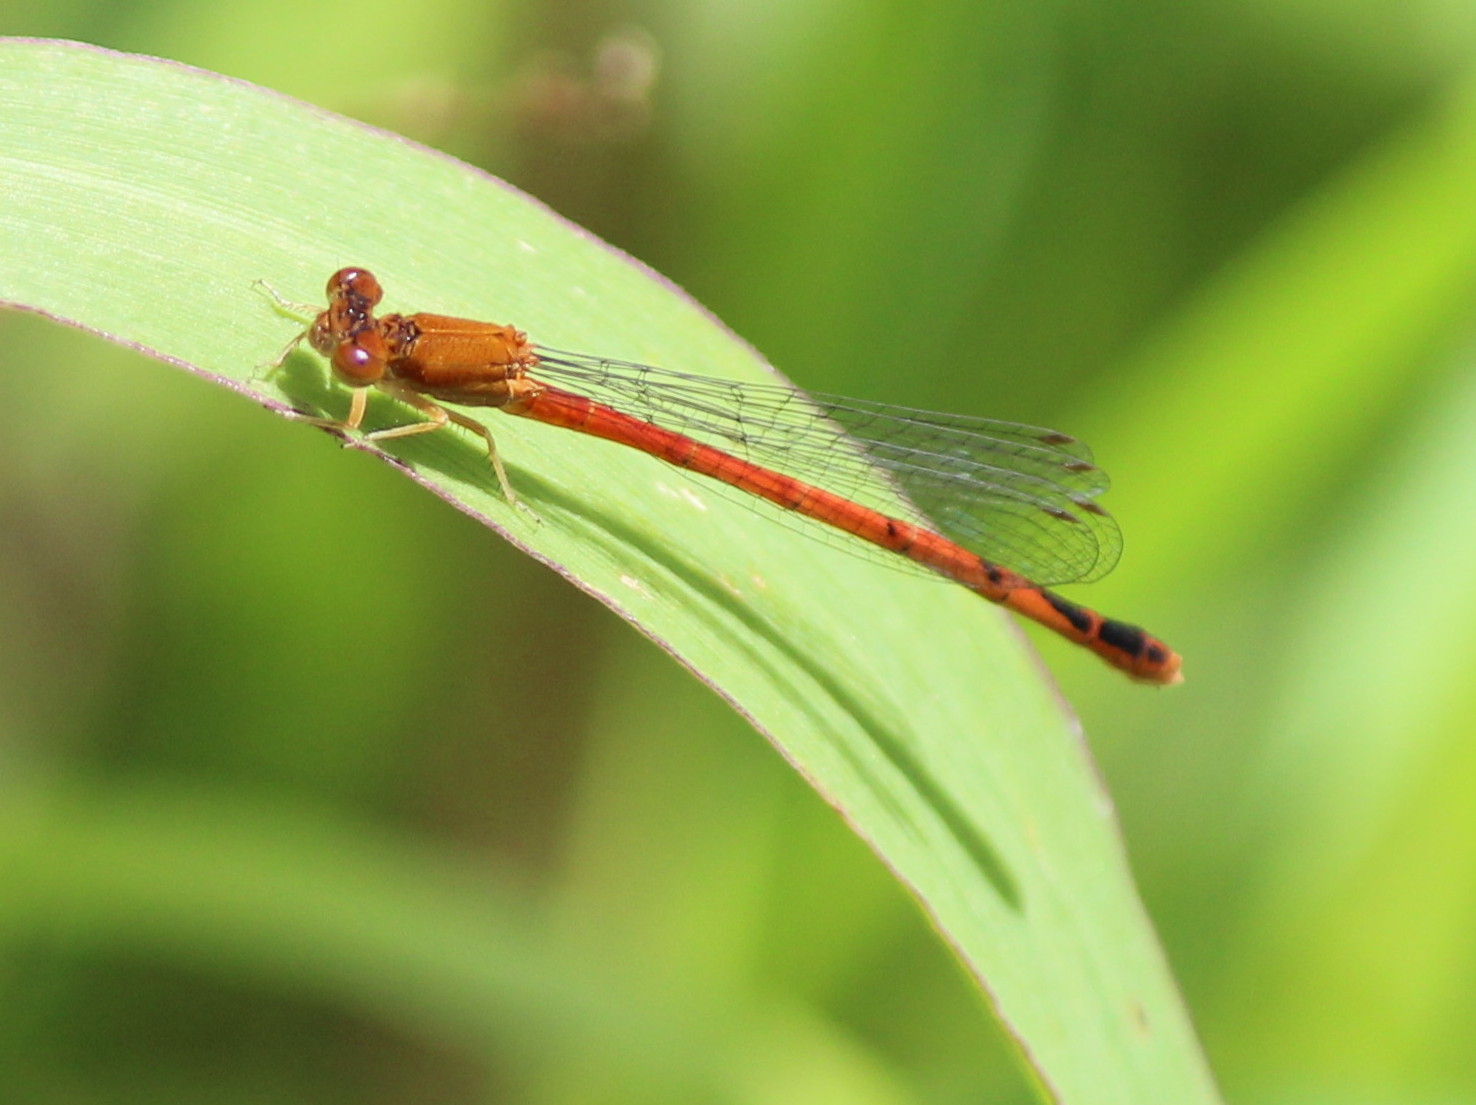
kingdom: Animalia
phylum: Arthropoda
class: Insecta
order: Odonata
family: Coenagrionidae
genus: Amphiagrion
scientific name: Amphiagrion saucium
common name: Eastern red damsel
